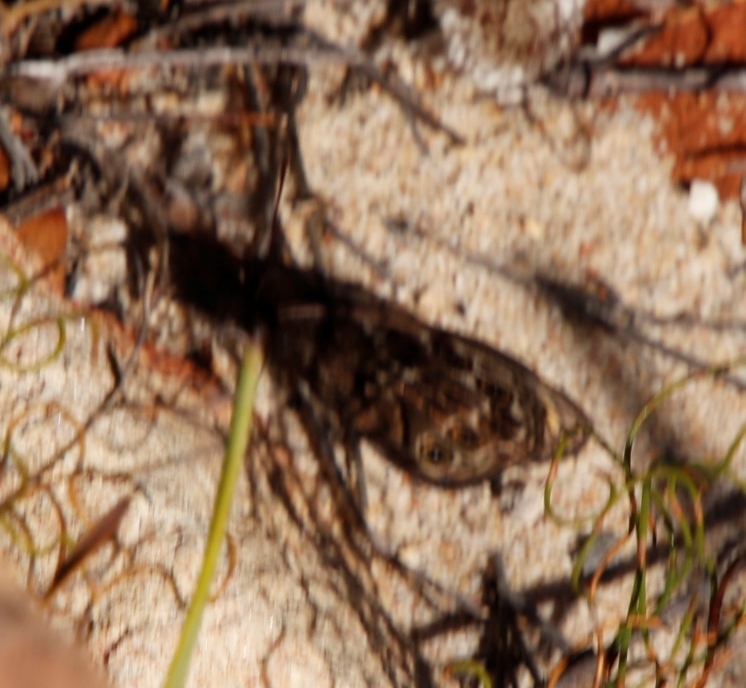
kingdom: Animalia
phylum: Arthropoda
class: Insecta
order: Lepidoptera
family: Nymphalidae
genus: Dira
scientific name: Dira clytus
